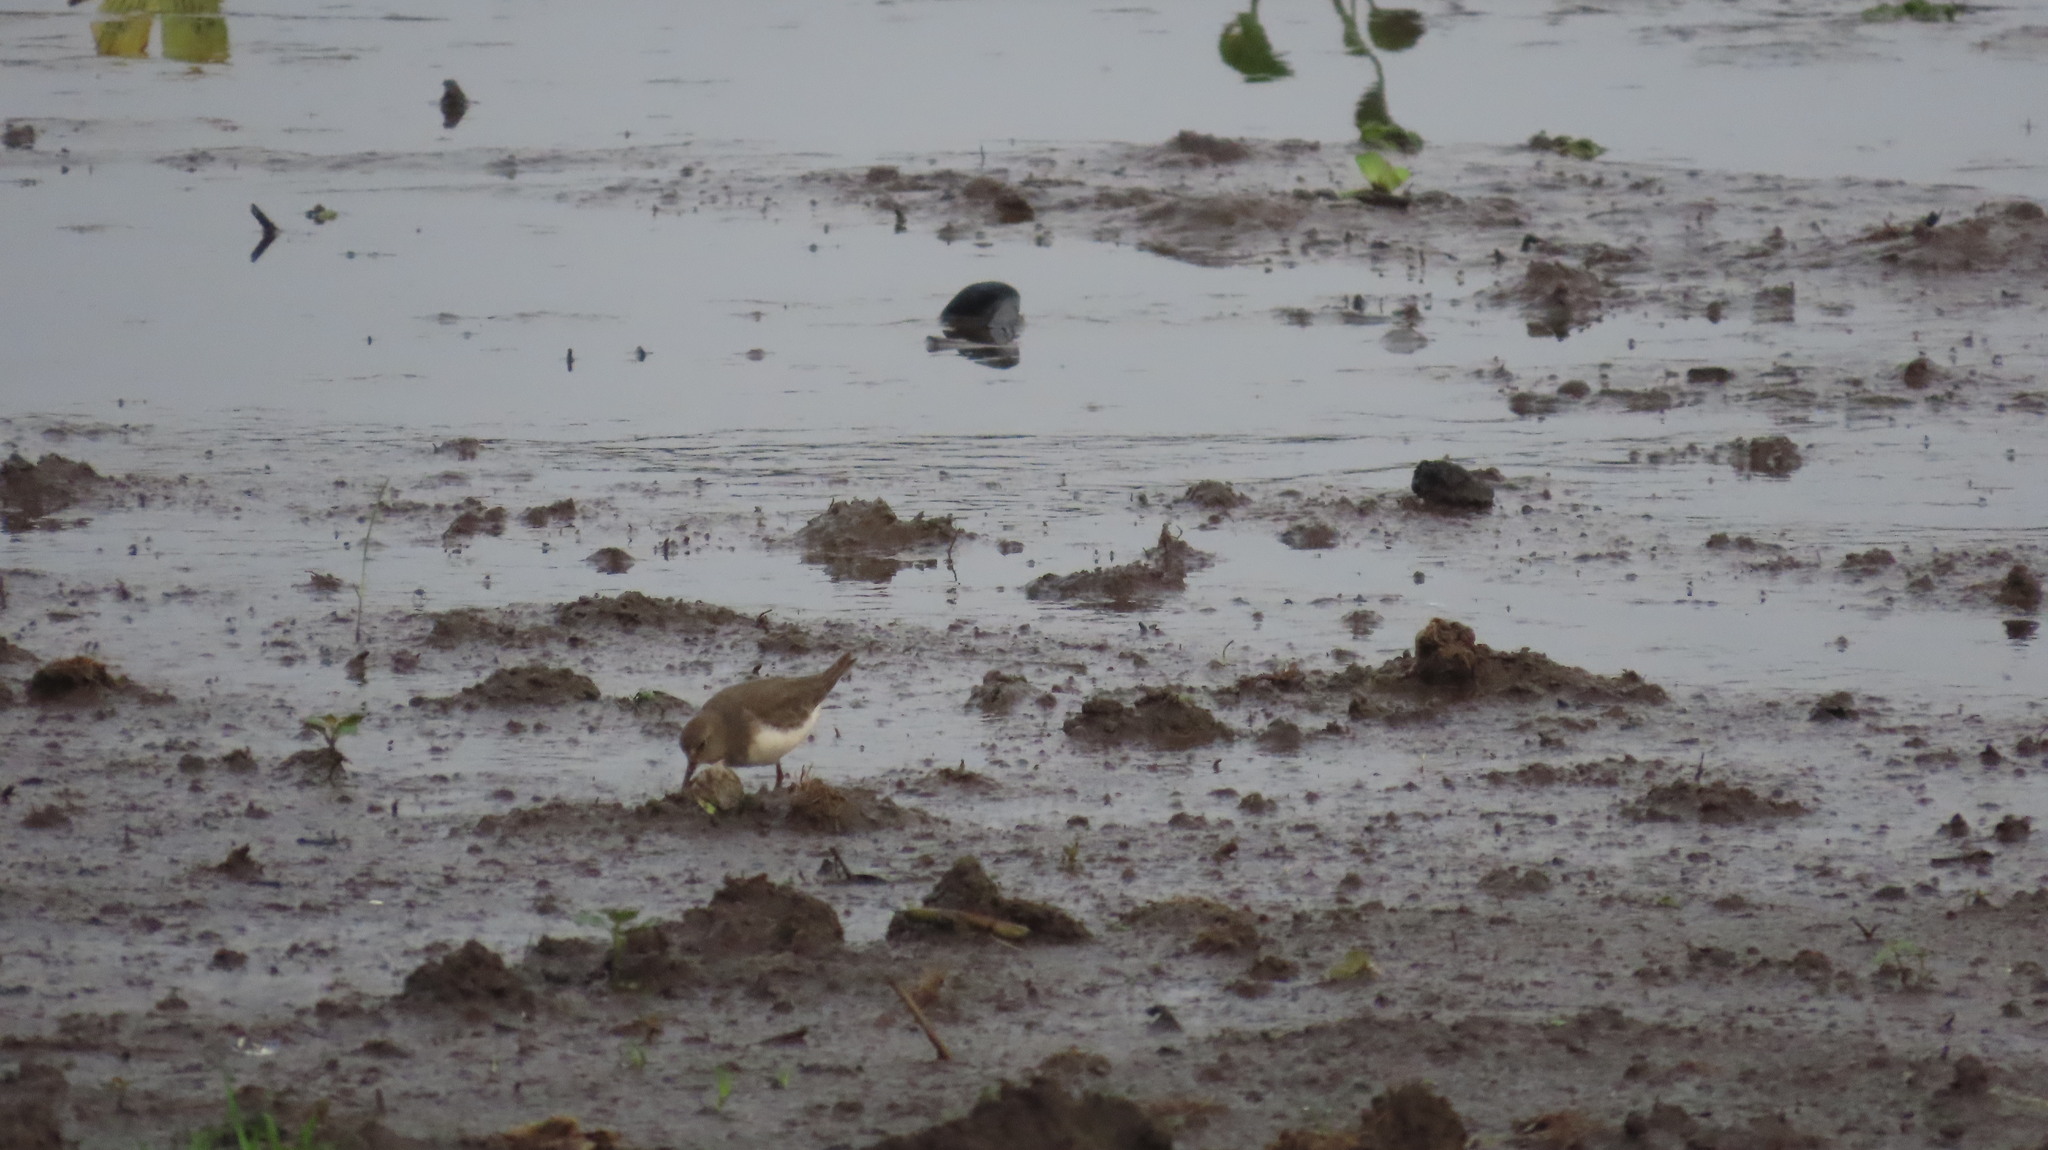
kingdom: Animalia
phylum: Chordata
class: Aves
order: Charadriiformes
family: Scolopacidae
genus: Calidris
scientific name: Calidris temminckii
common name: Temminck's stint
